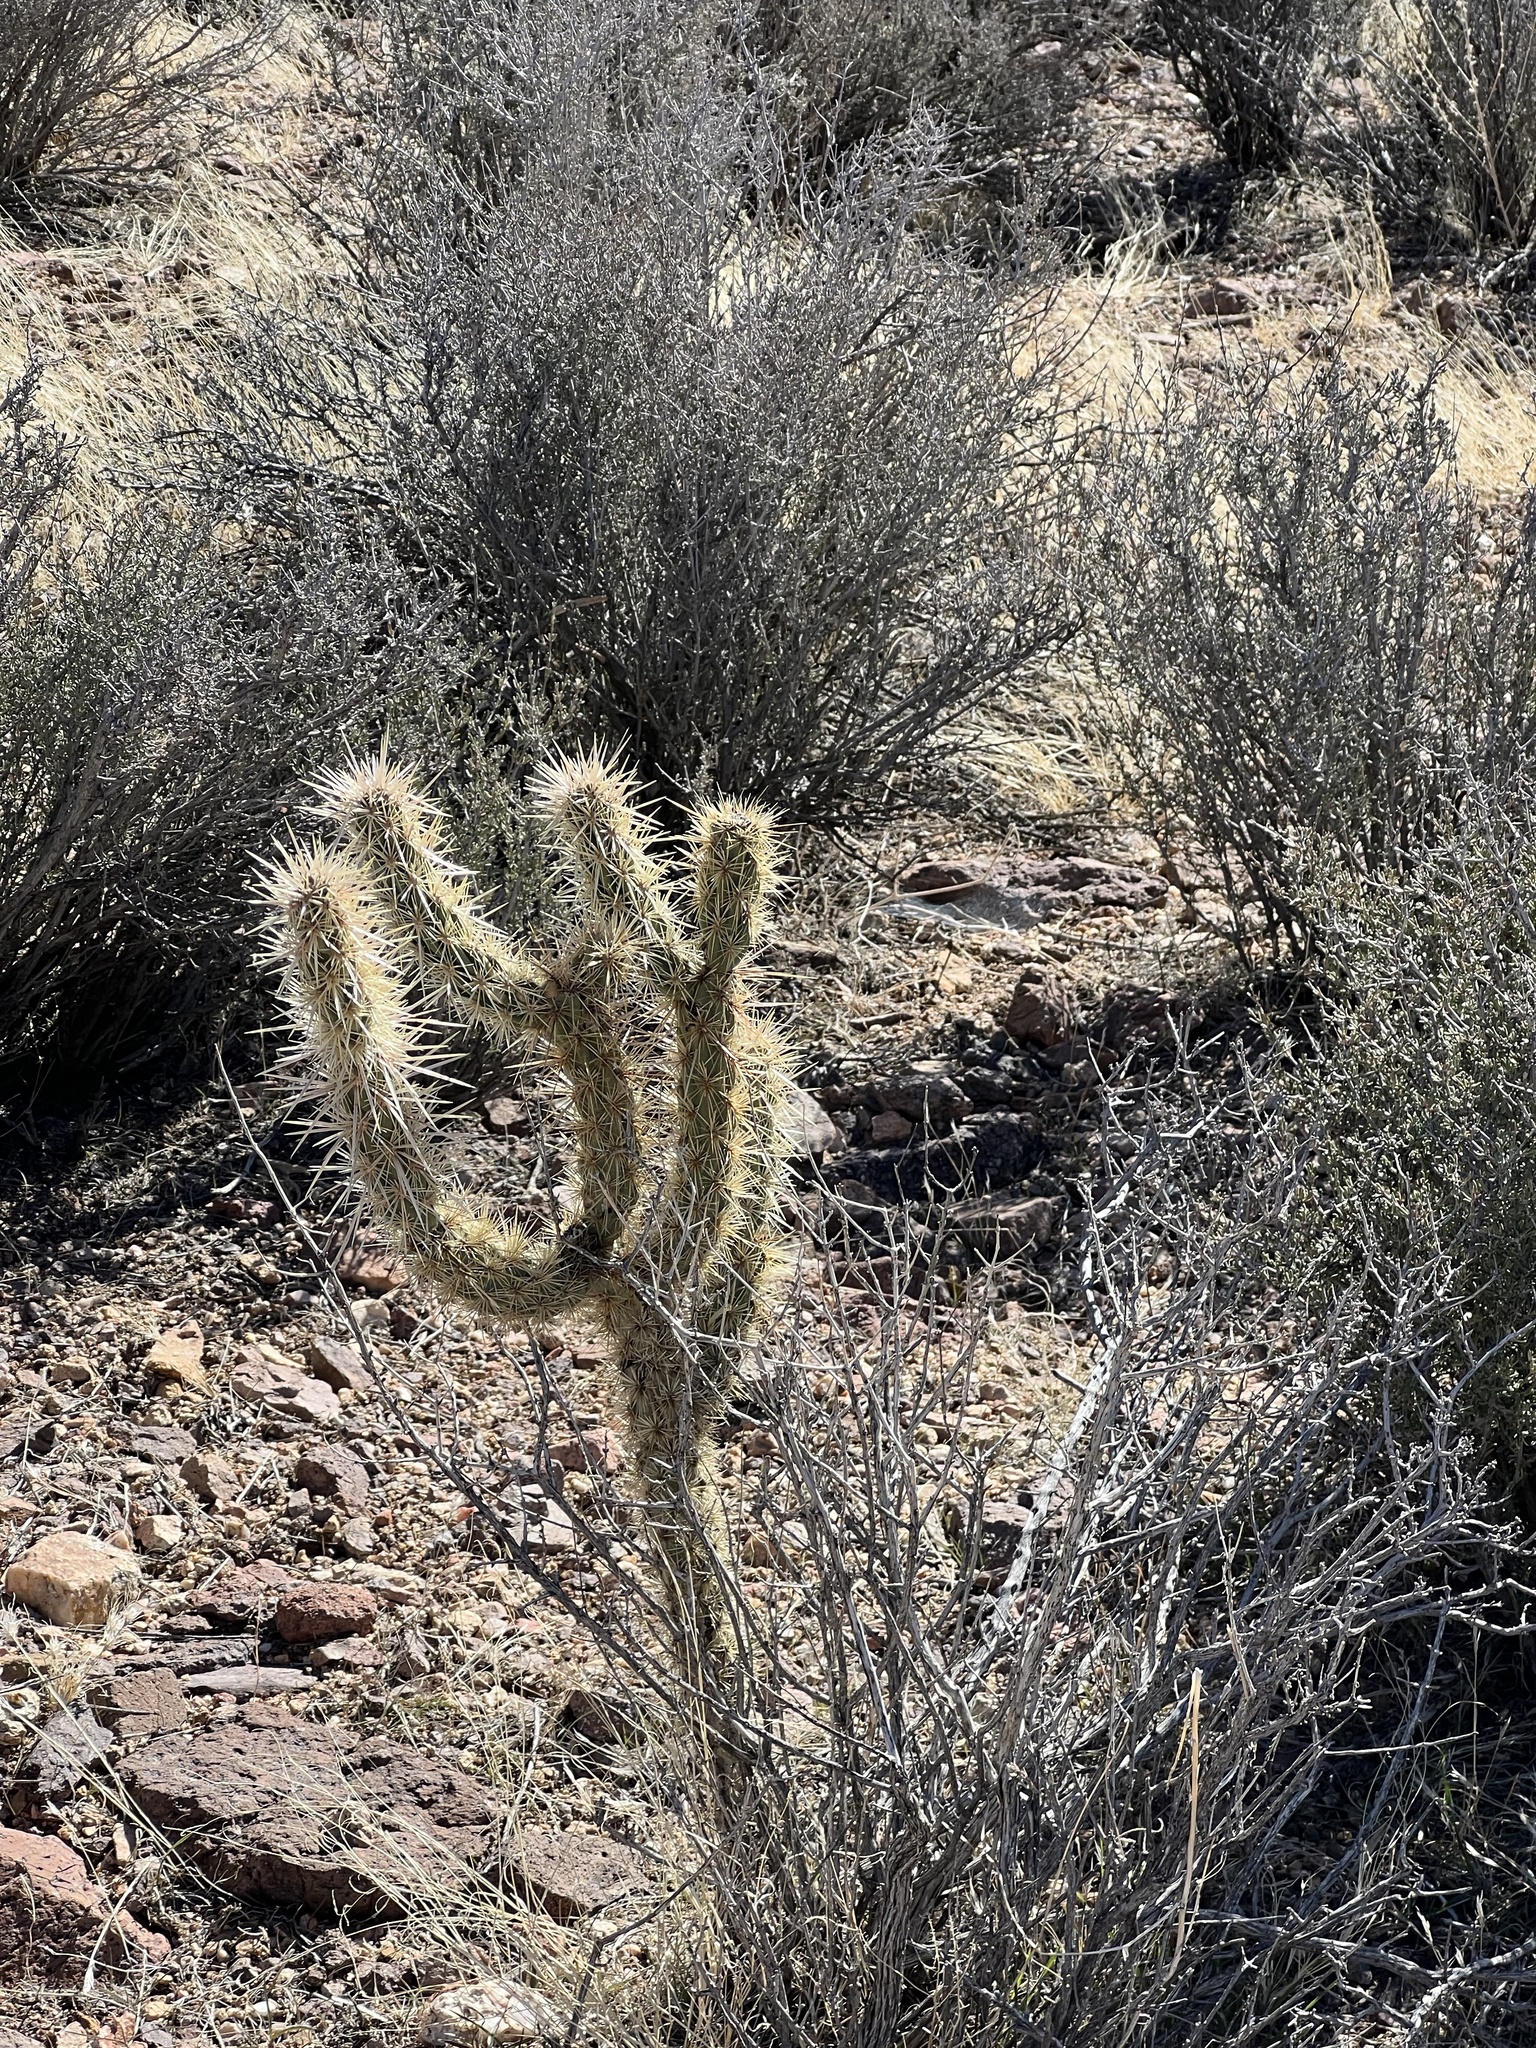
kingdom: Plantae
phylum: Tracheophyta
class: Magnoliopsida
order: Caryophyllales
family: Cactaceae
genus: Cylindropuntia
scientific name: Cylindropuntia acanthocarpa
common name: Buckhorn cholla
